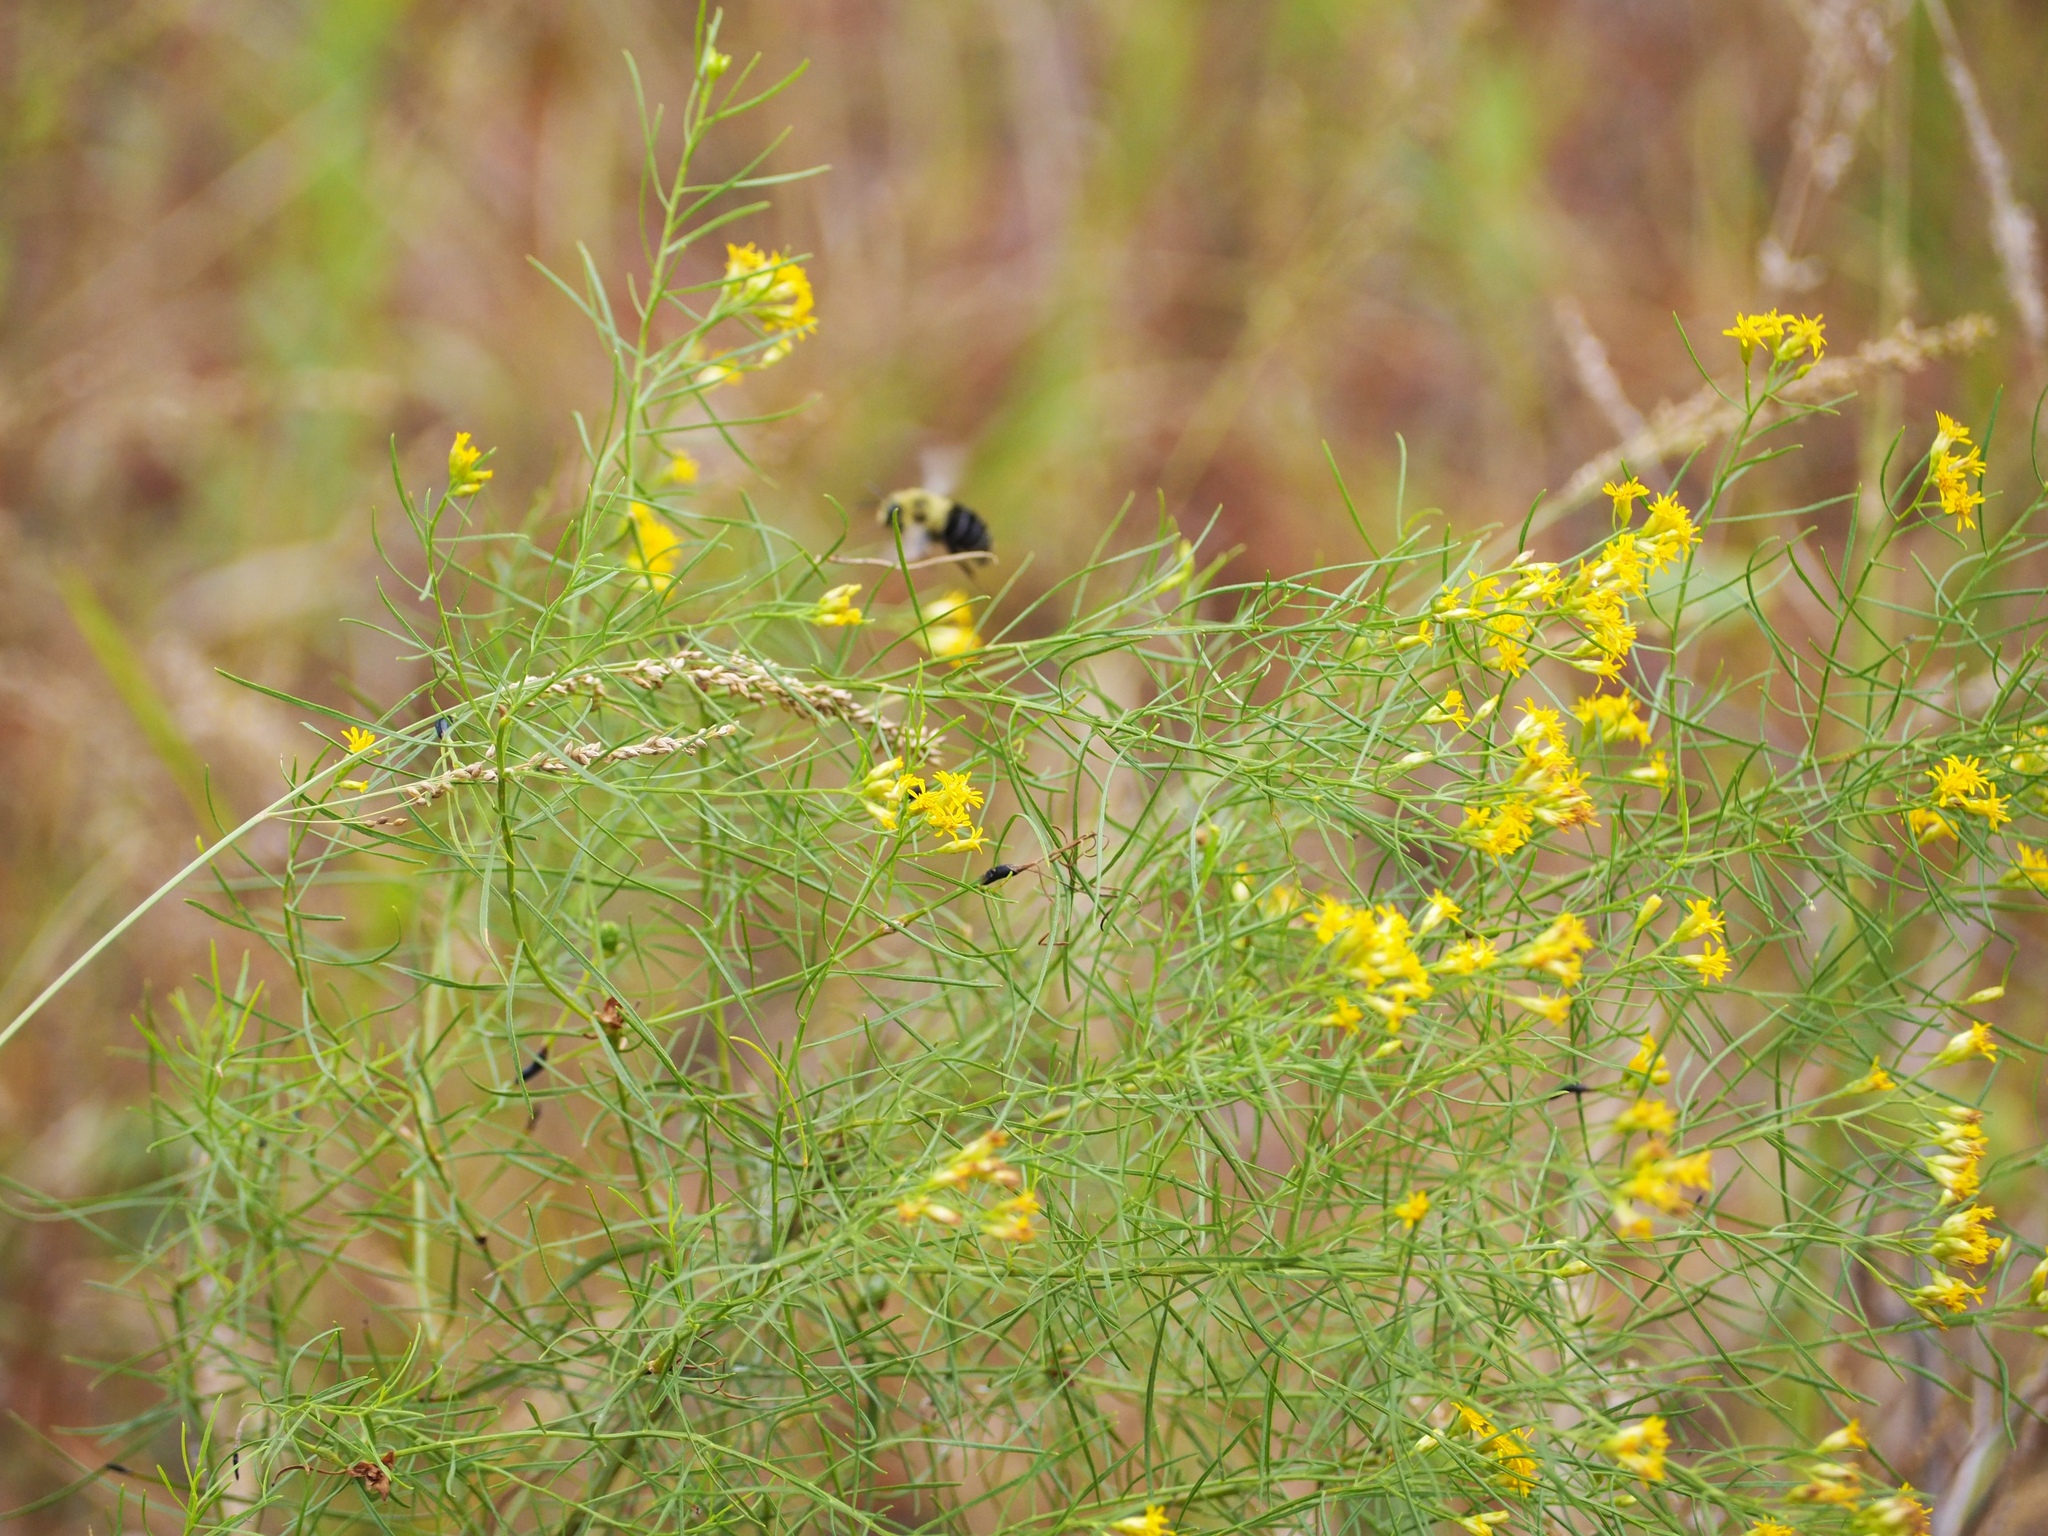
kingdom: Animalia
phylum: Arthropoda
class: Insecta
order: Hymenoptera
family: Apidae
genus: Bombus
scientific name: Bombus impatiens
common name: Common eastern bumble bee
